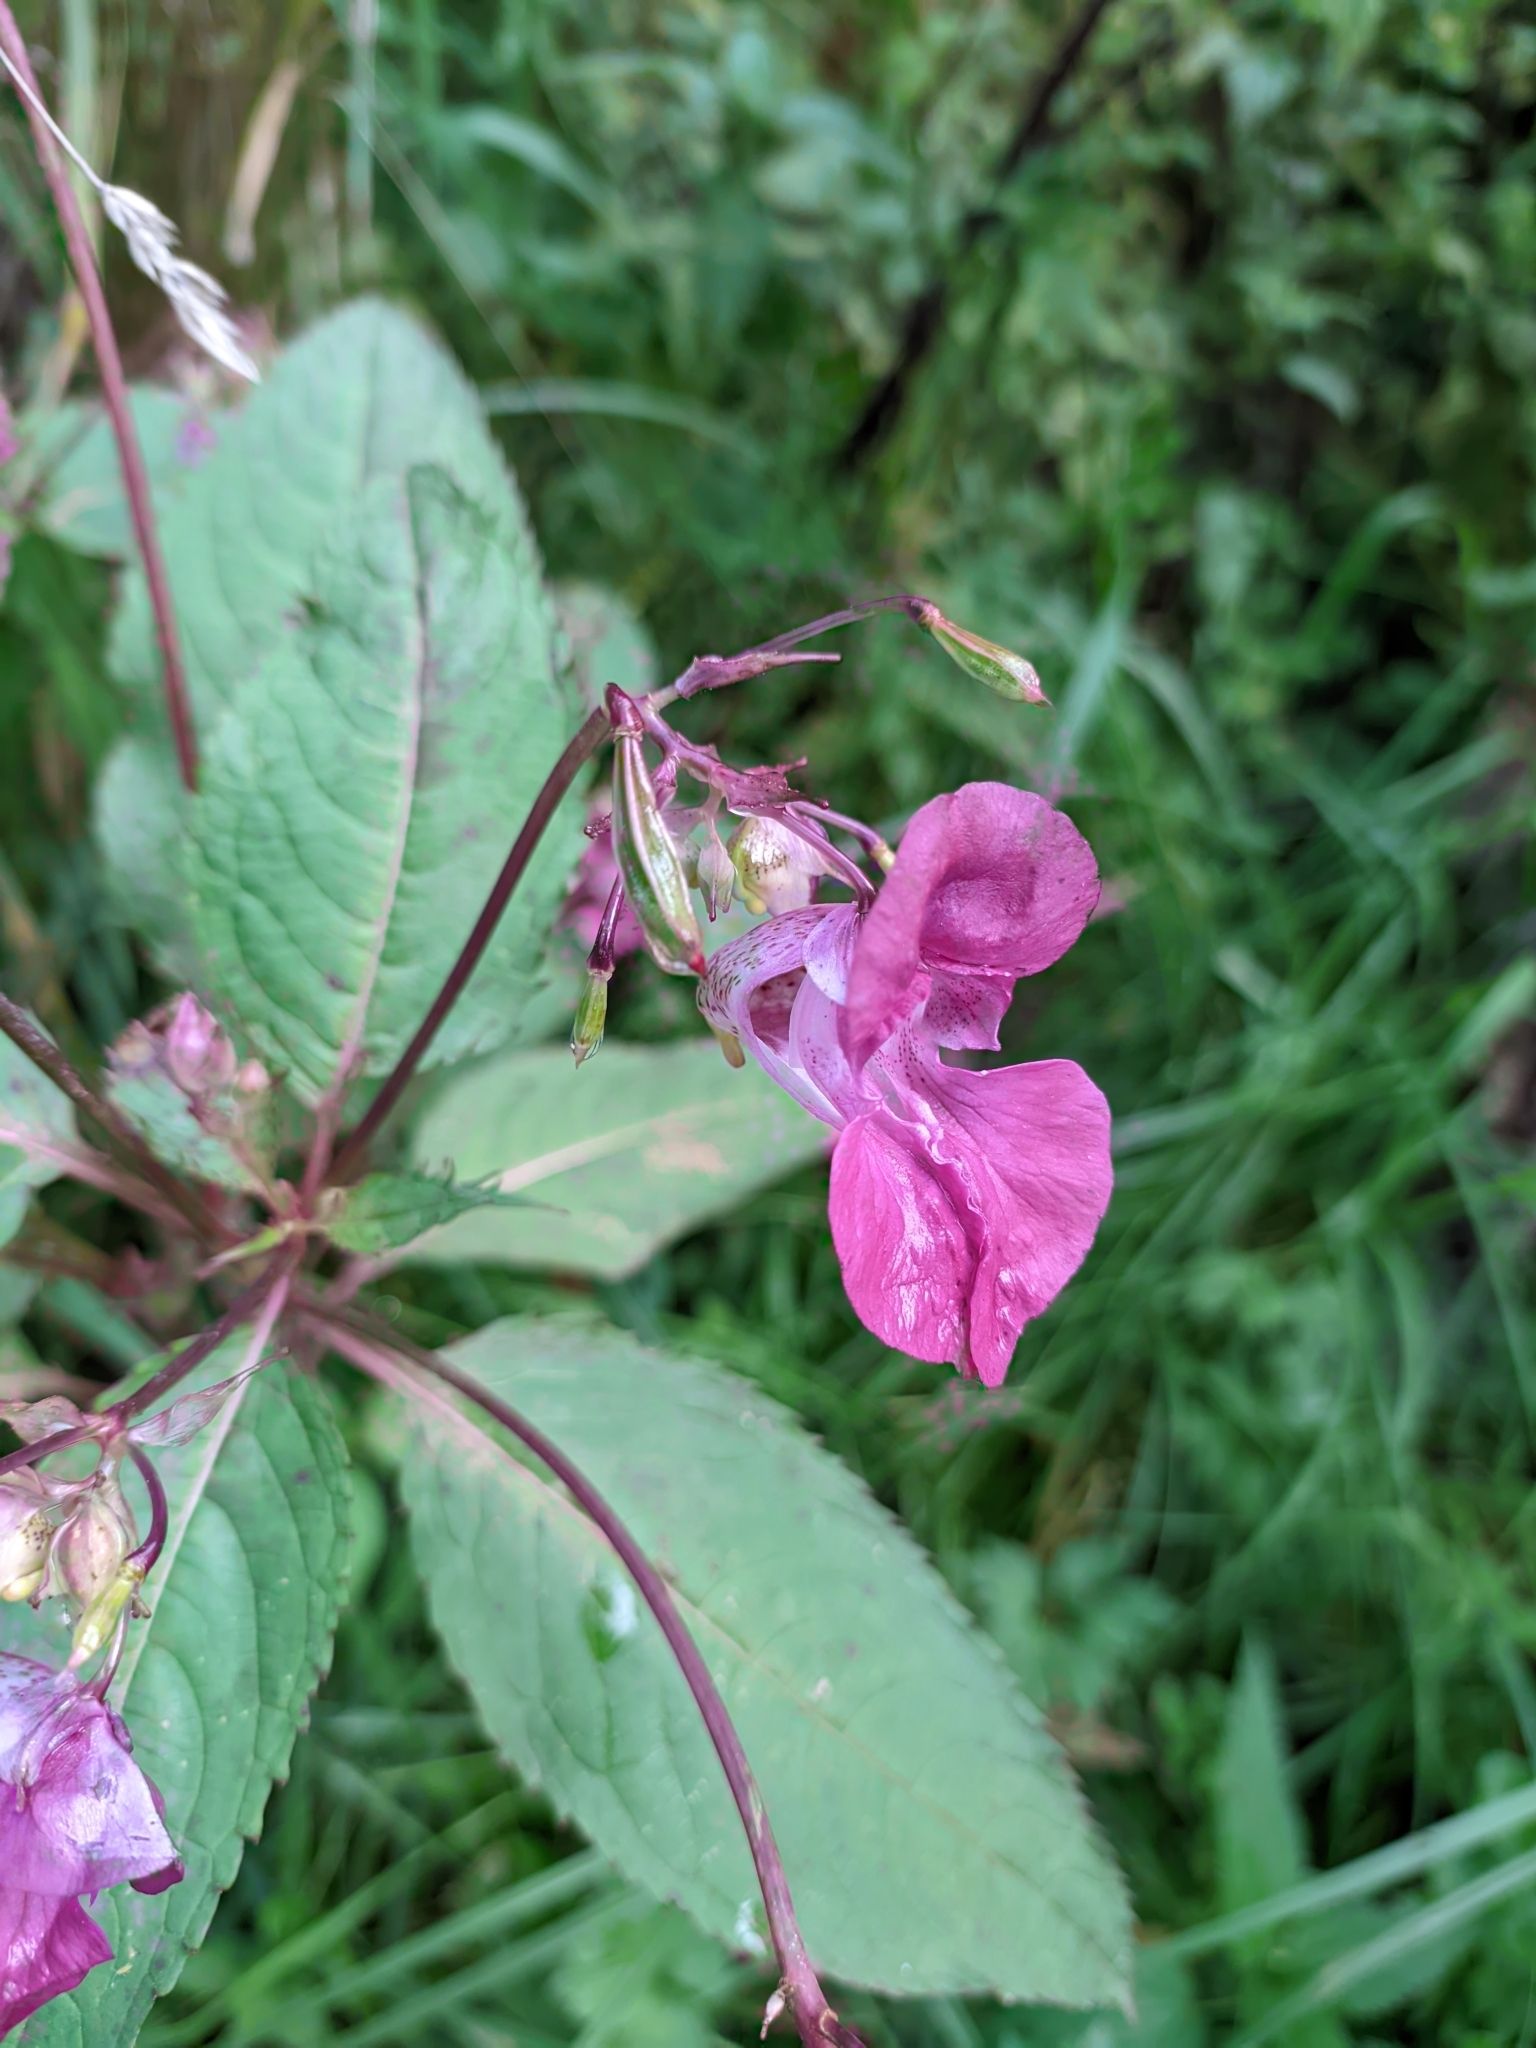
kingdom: Plantae
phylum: Tracheophyta
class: Magnoliopsida
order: Ericales
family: Balsaminaceae
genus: Impatiens
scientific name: Impatiens glandulifera
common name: Himalayan balsam
